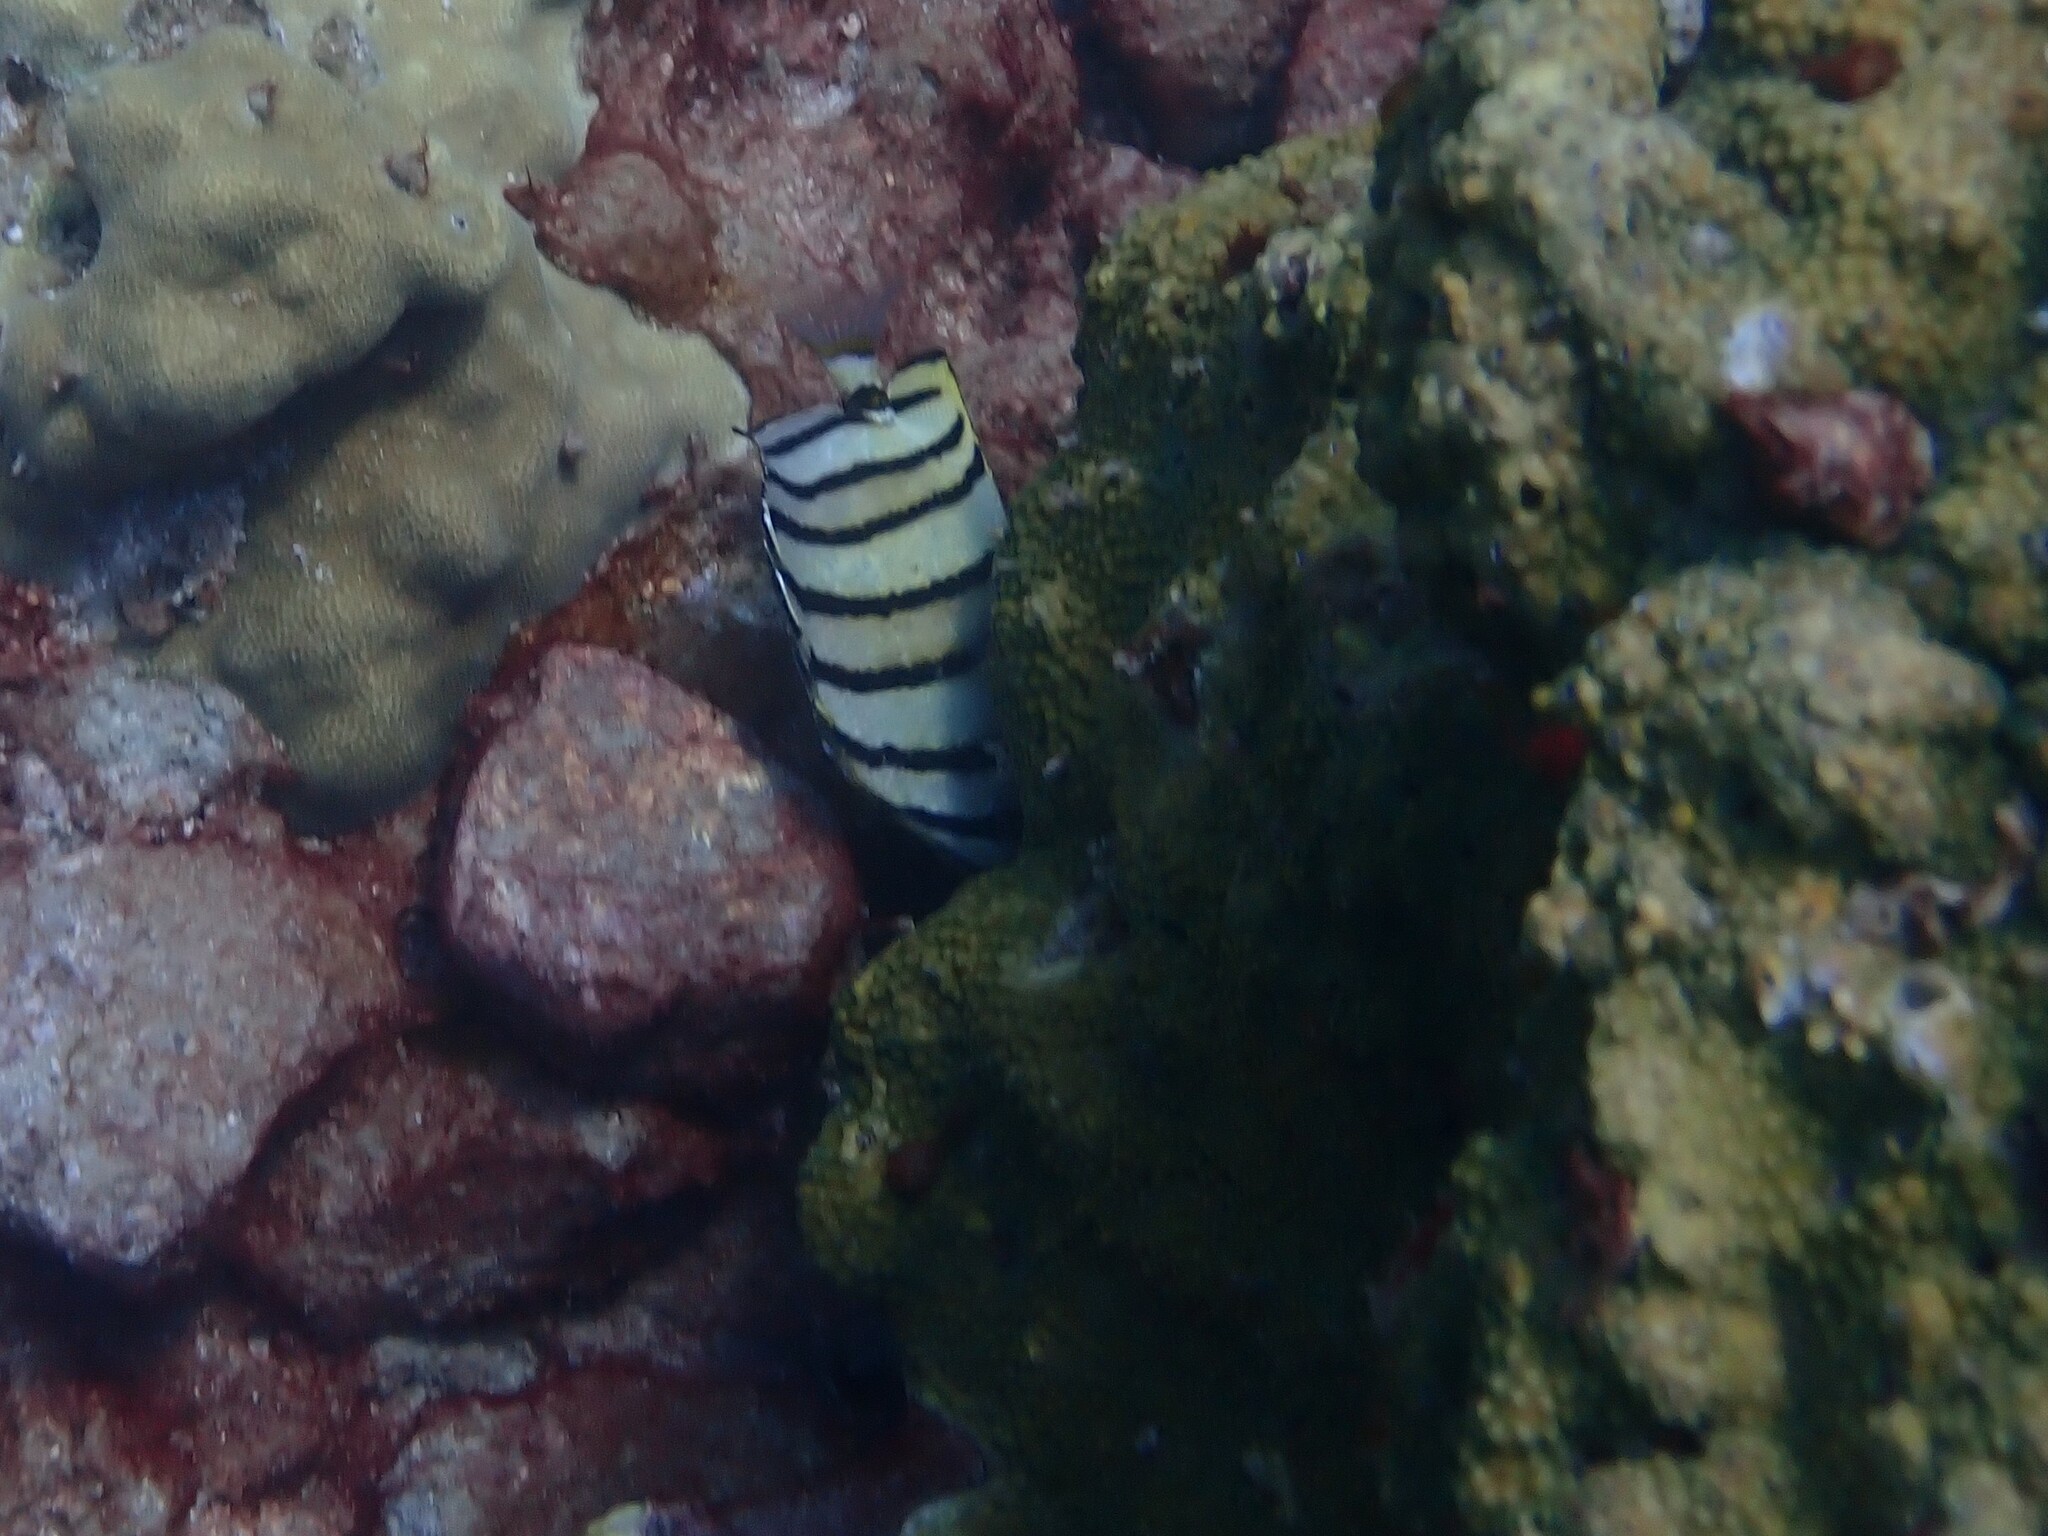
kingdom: Animalia
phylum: Chordata
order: Perciformes
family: Chaetodontidae
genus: Chaetodon
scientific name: Chaetodon octofasciatus
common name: Eightband butterflyfish
